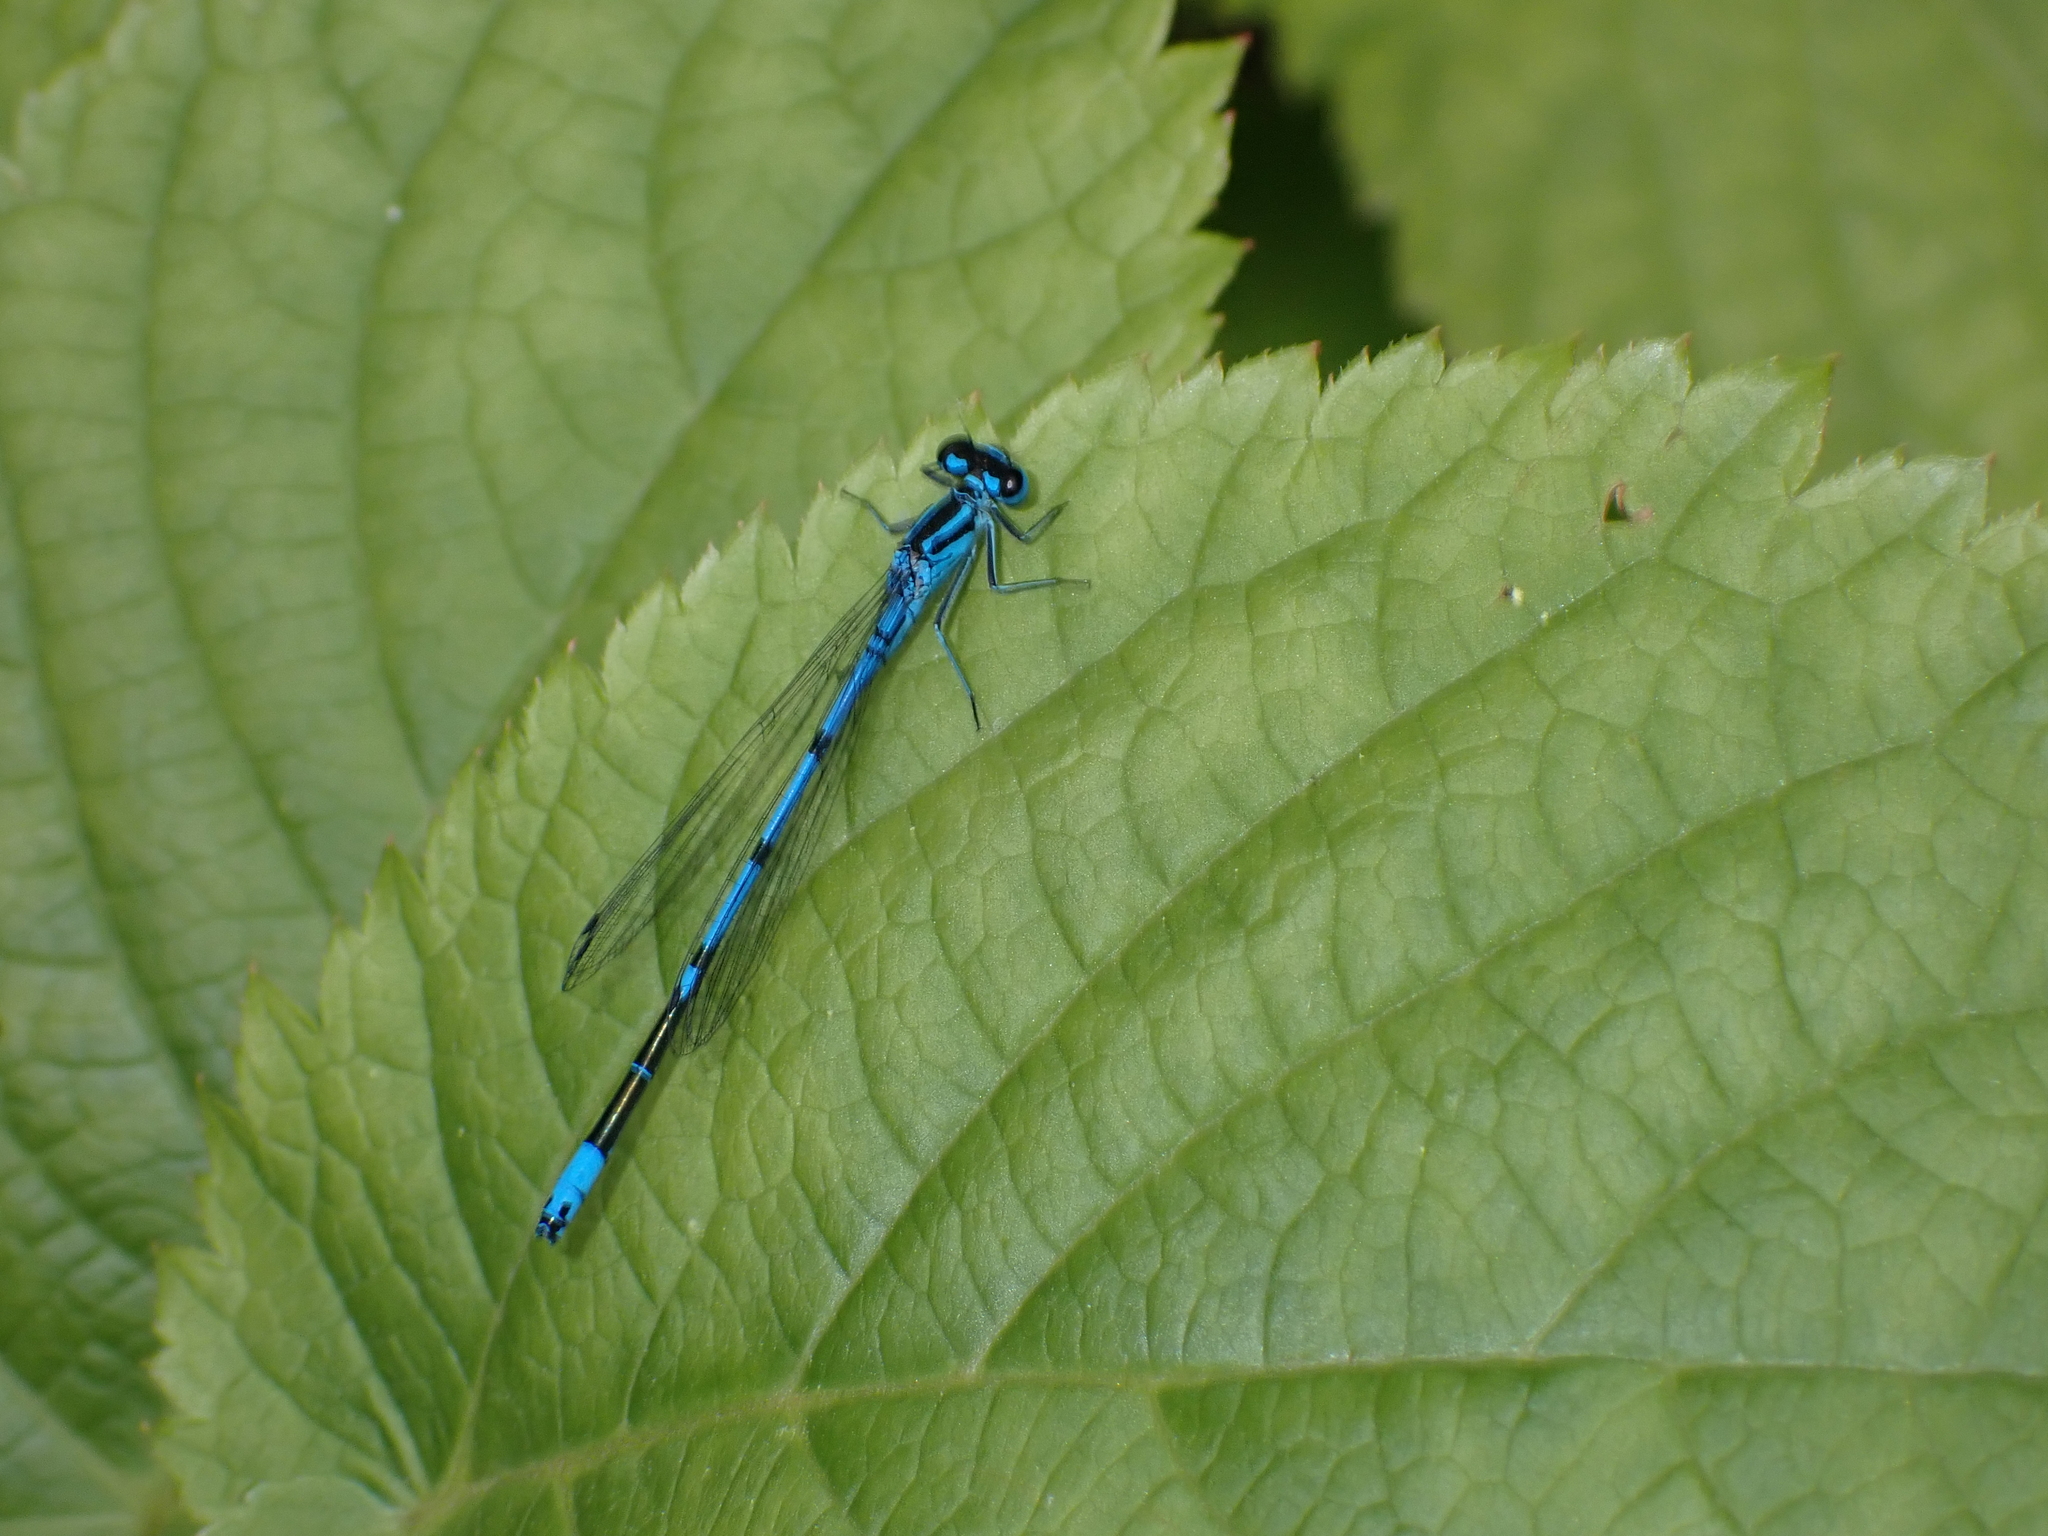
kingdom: Animalia
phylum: Arthropoda
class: Insecta
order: Odonata
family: Coenagrionidae
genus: Coenagrion
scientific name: Coenagrion puella
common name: Azure damselfly
